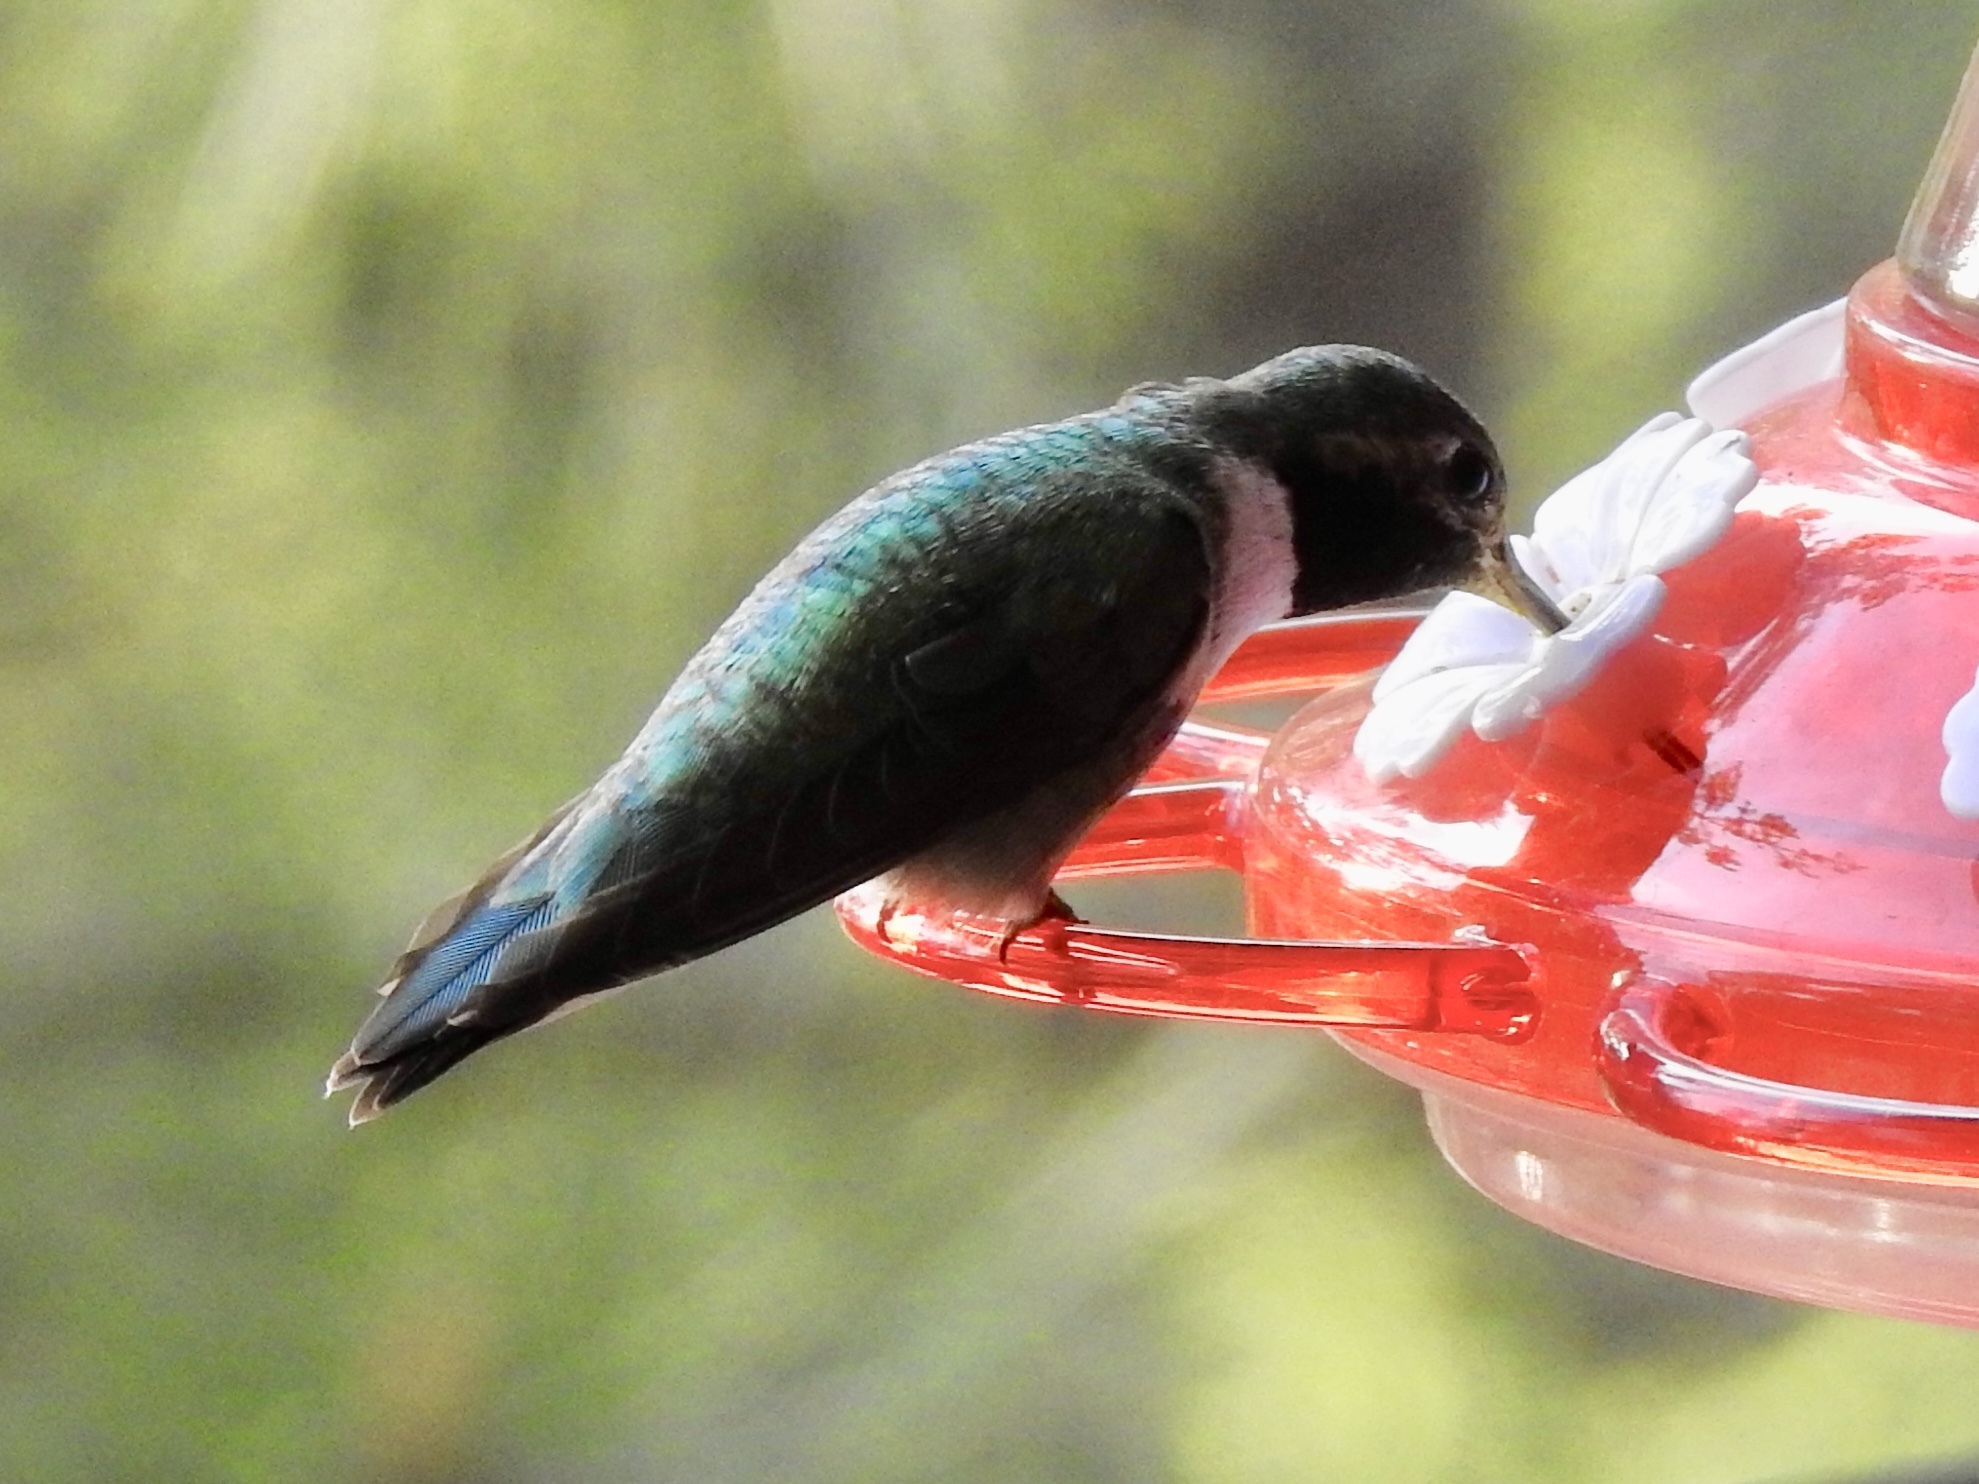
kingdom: Animalia
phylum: Chordata
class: Aves
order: Apodiformes
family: Trochilidae
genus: Selasphorus
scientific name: Selasphorus platycercus
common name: Broad-tailed hummingbird
